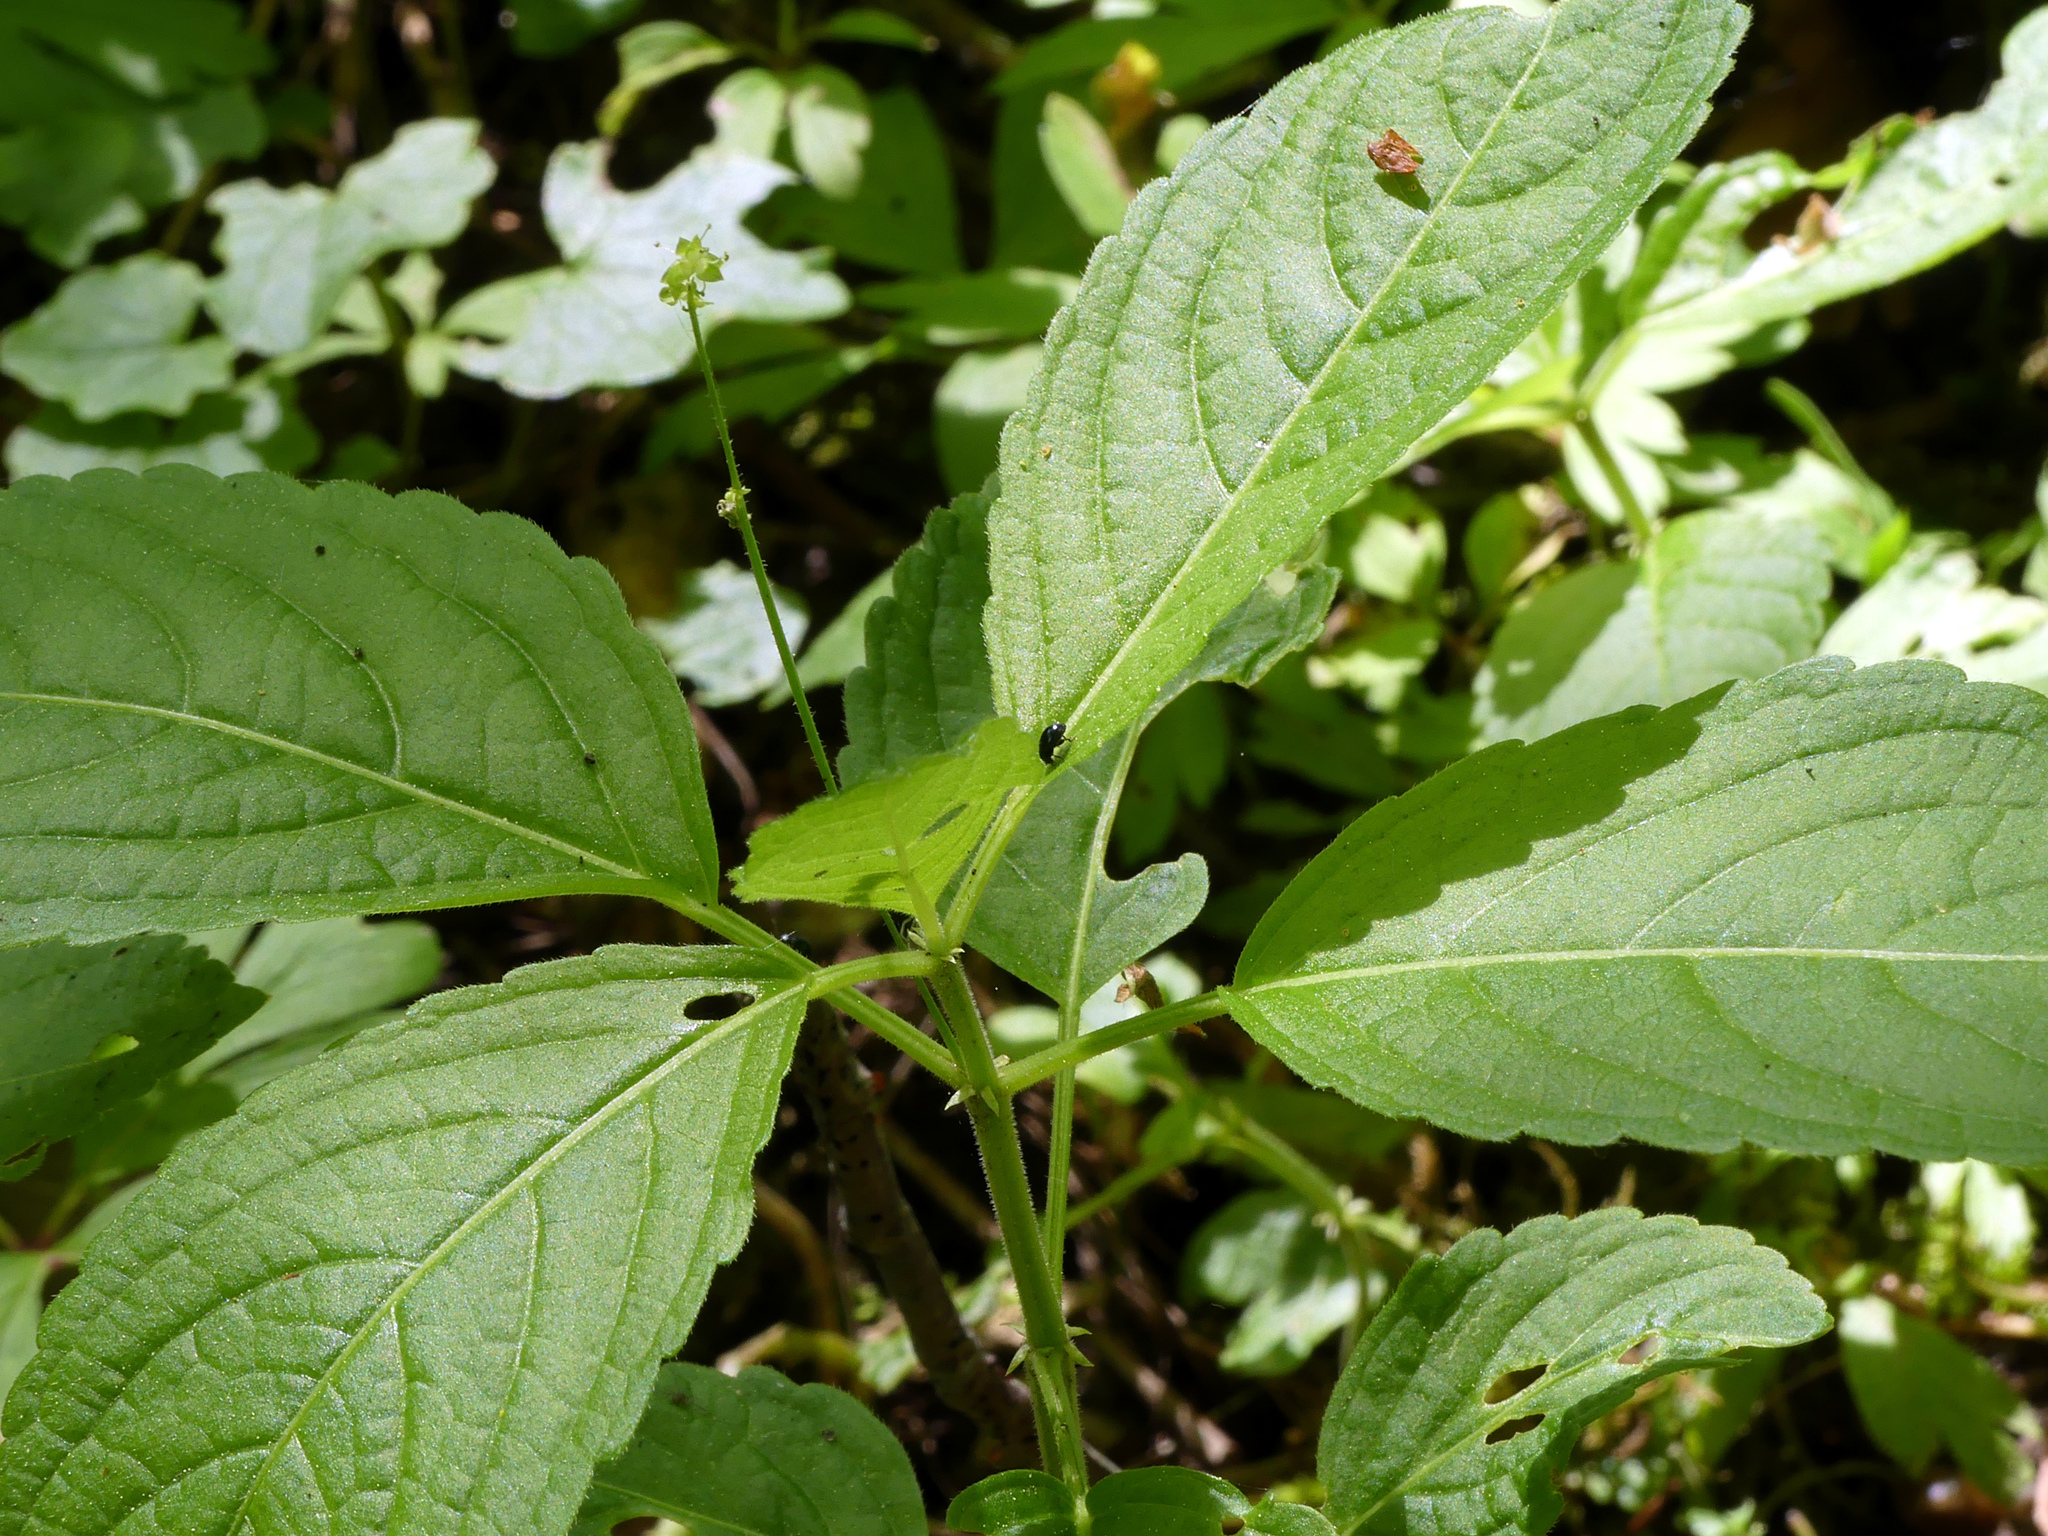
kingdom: Plantae
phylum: Tracheophyta
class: Magnoliopsida
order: Malpighiales
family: Euphorbiaceae
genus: Mercurialis
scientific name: Mercurialis perennis
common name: Dog mercury
